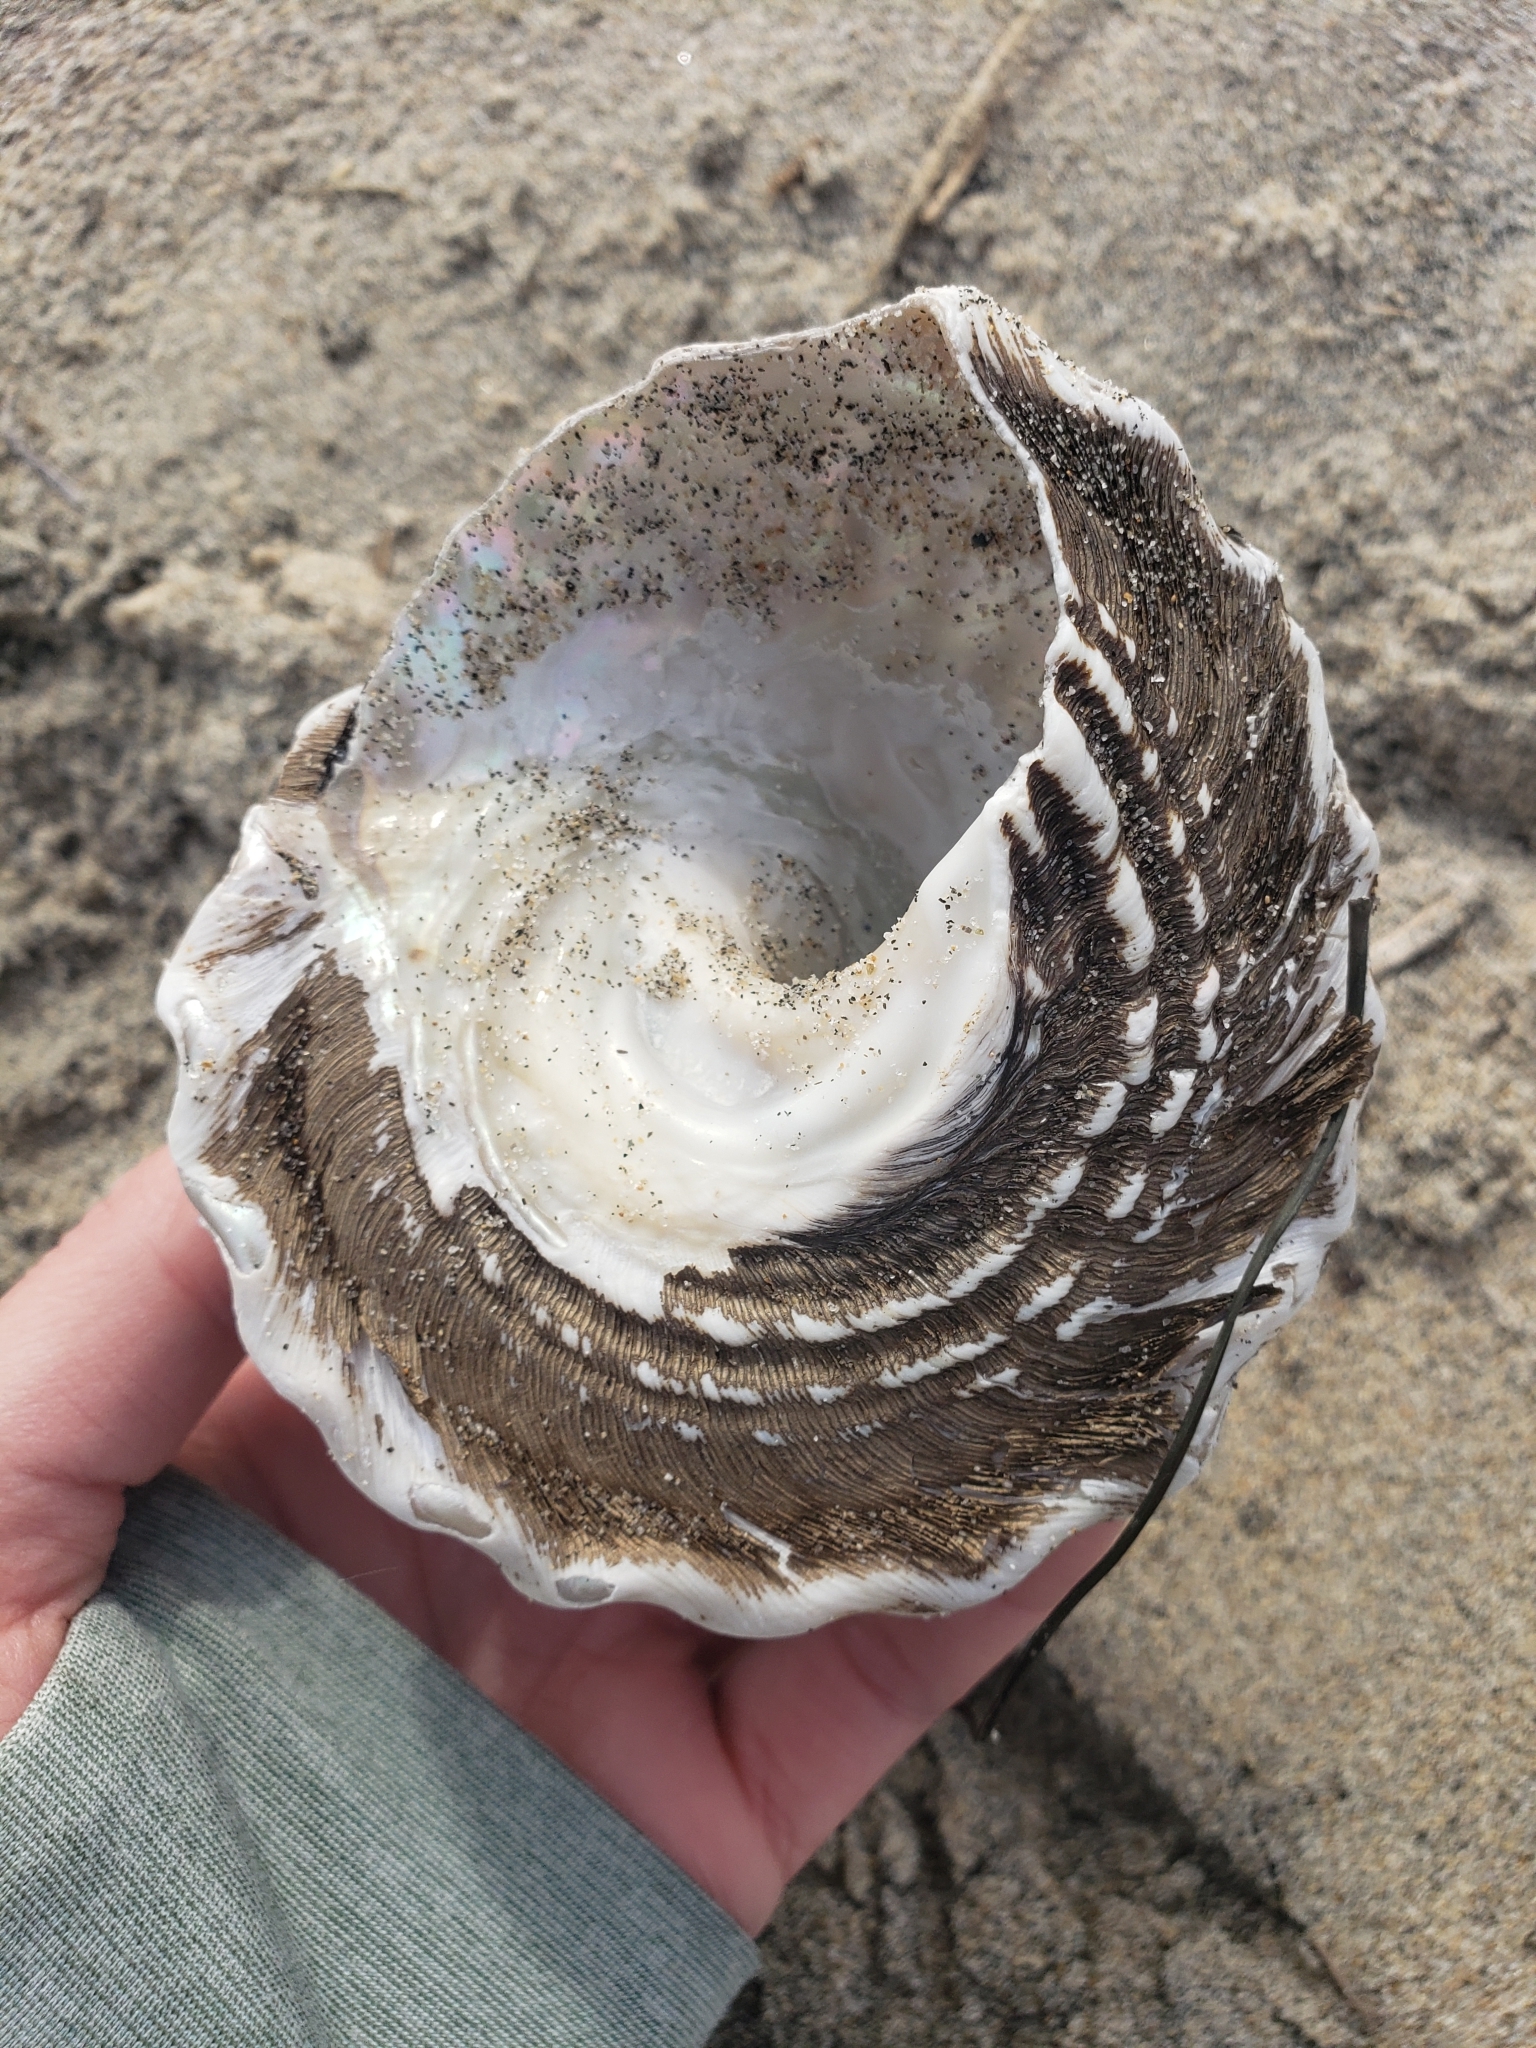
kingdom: Animalia
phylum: Mollusca
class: Gastropoda
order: Trochida
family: Turbinidae
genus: Megastraea
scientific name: Megastraea undosa
